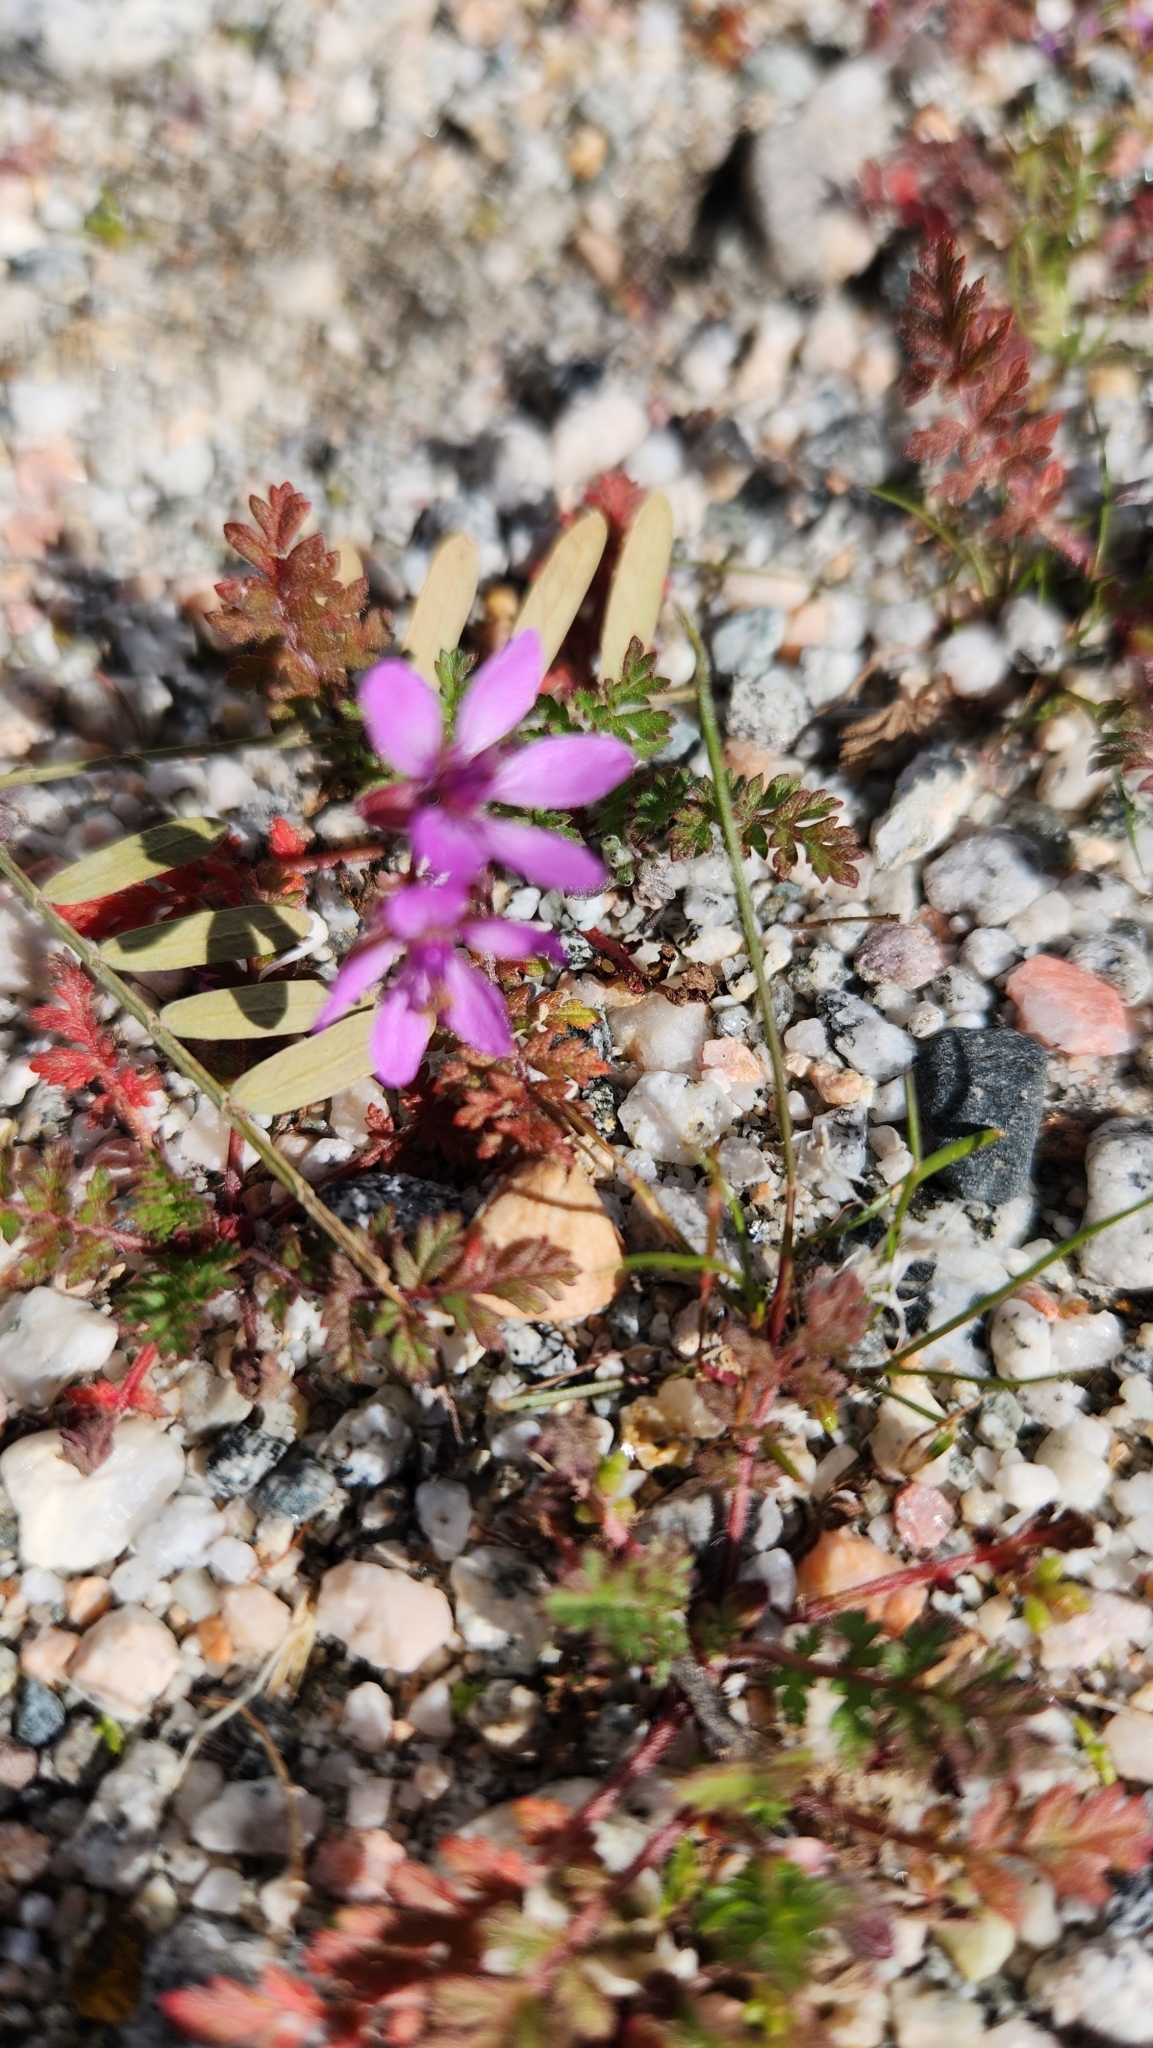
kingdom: Plantae
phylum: Tracheophyta
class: Magnoliopsida
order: Geraniales
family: Geraniaceae
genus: Erodium
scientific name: Erodium cicutarium
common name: Common stork's-bill
